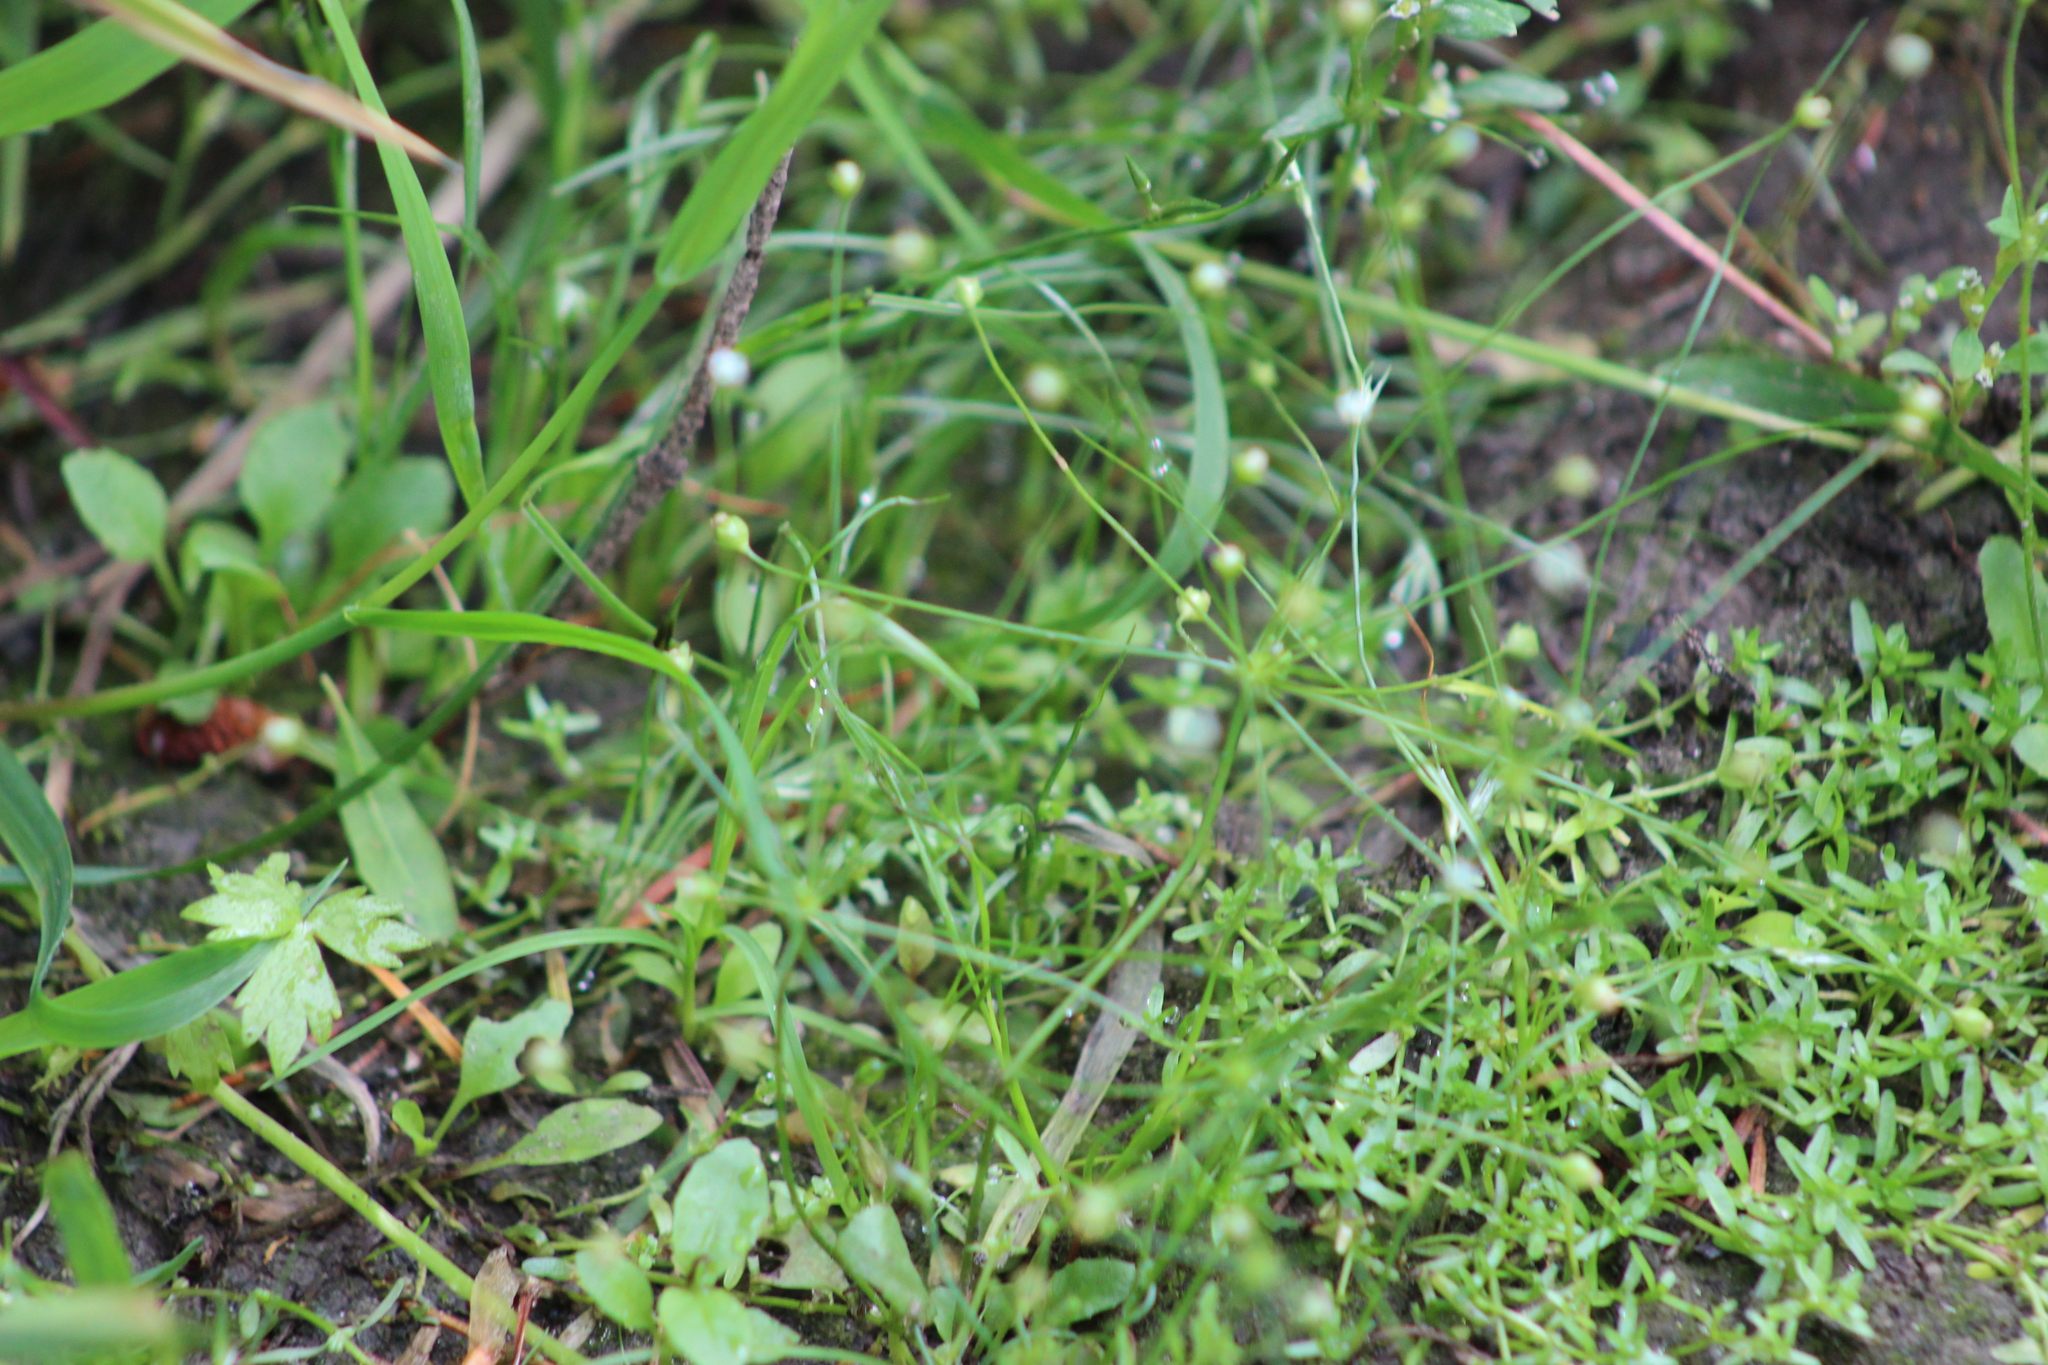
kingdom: Plantae
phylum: Tracheophyta
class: Magnoliopsida
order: Ericales
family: Primulaceae
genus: Androsace
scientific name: Androsace filiformis
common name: Filiform rock jasmine
